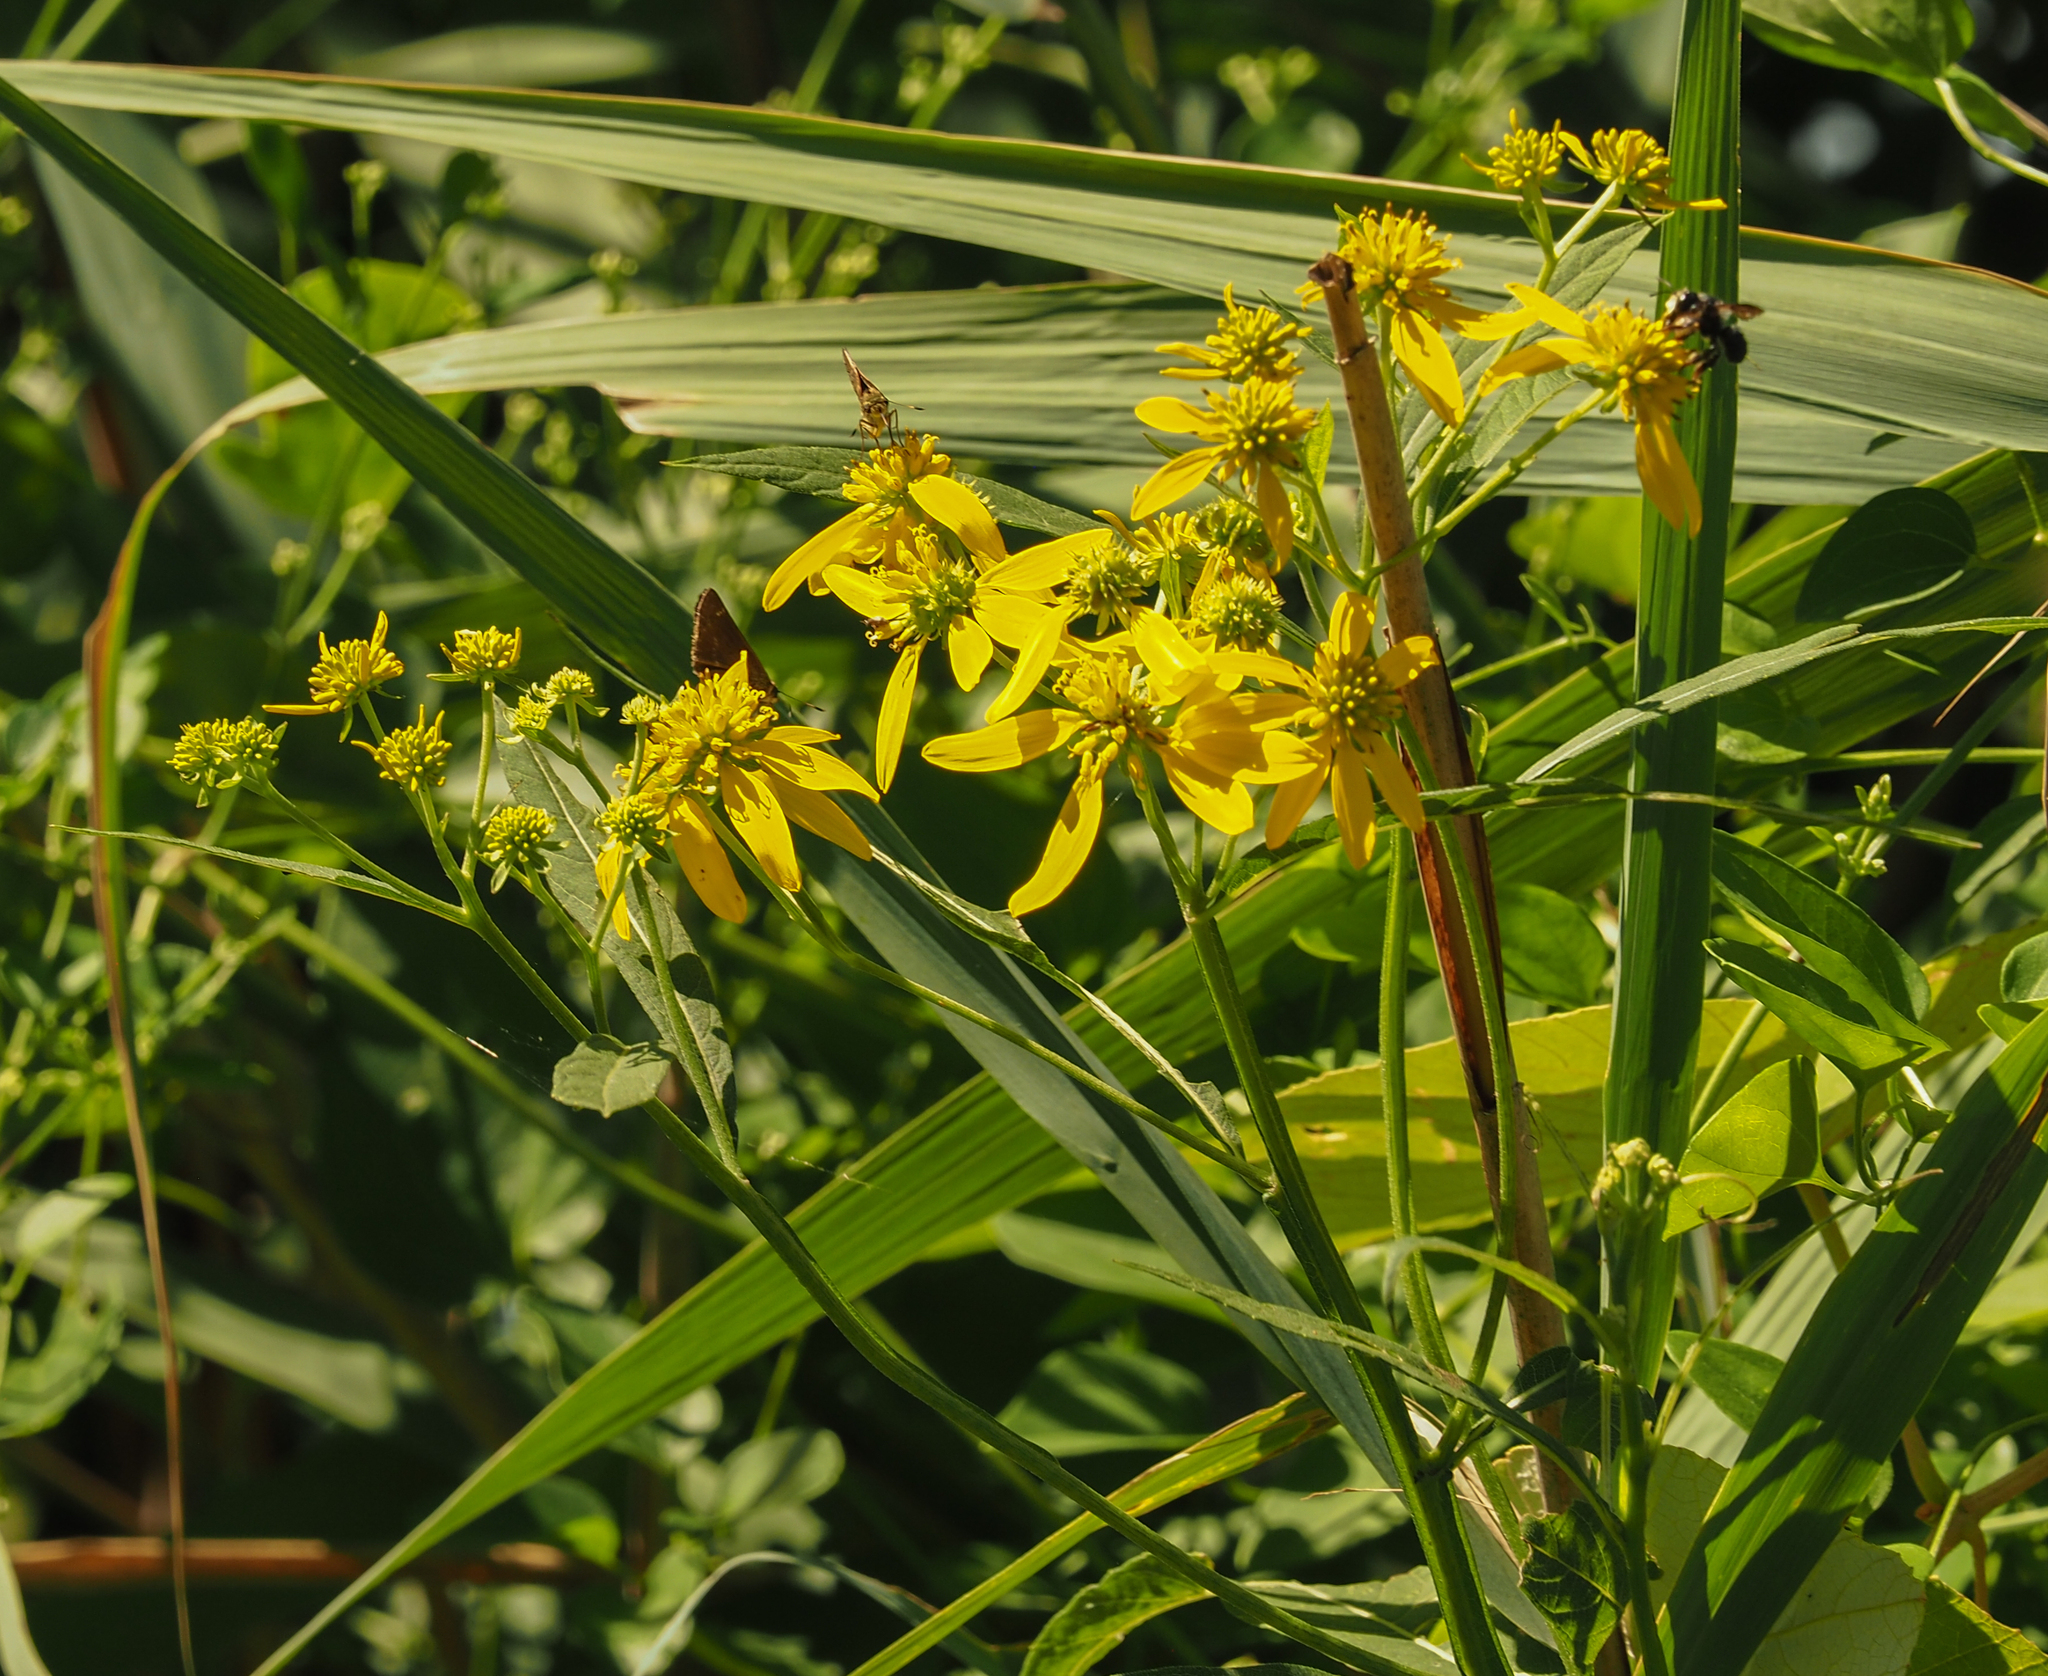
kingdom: Plantae
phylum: Tracheophyta
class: Magnoliopsida
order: Asterales
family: Asteraceae
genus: Verbesina
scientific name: Verbesina alternifolia
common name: Wingstem
